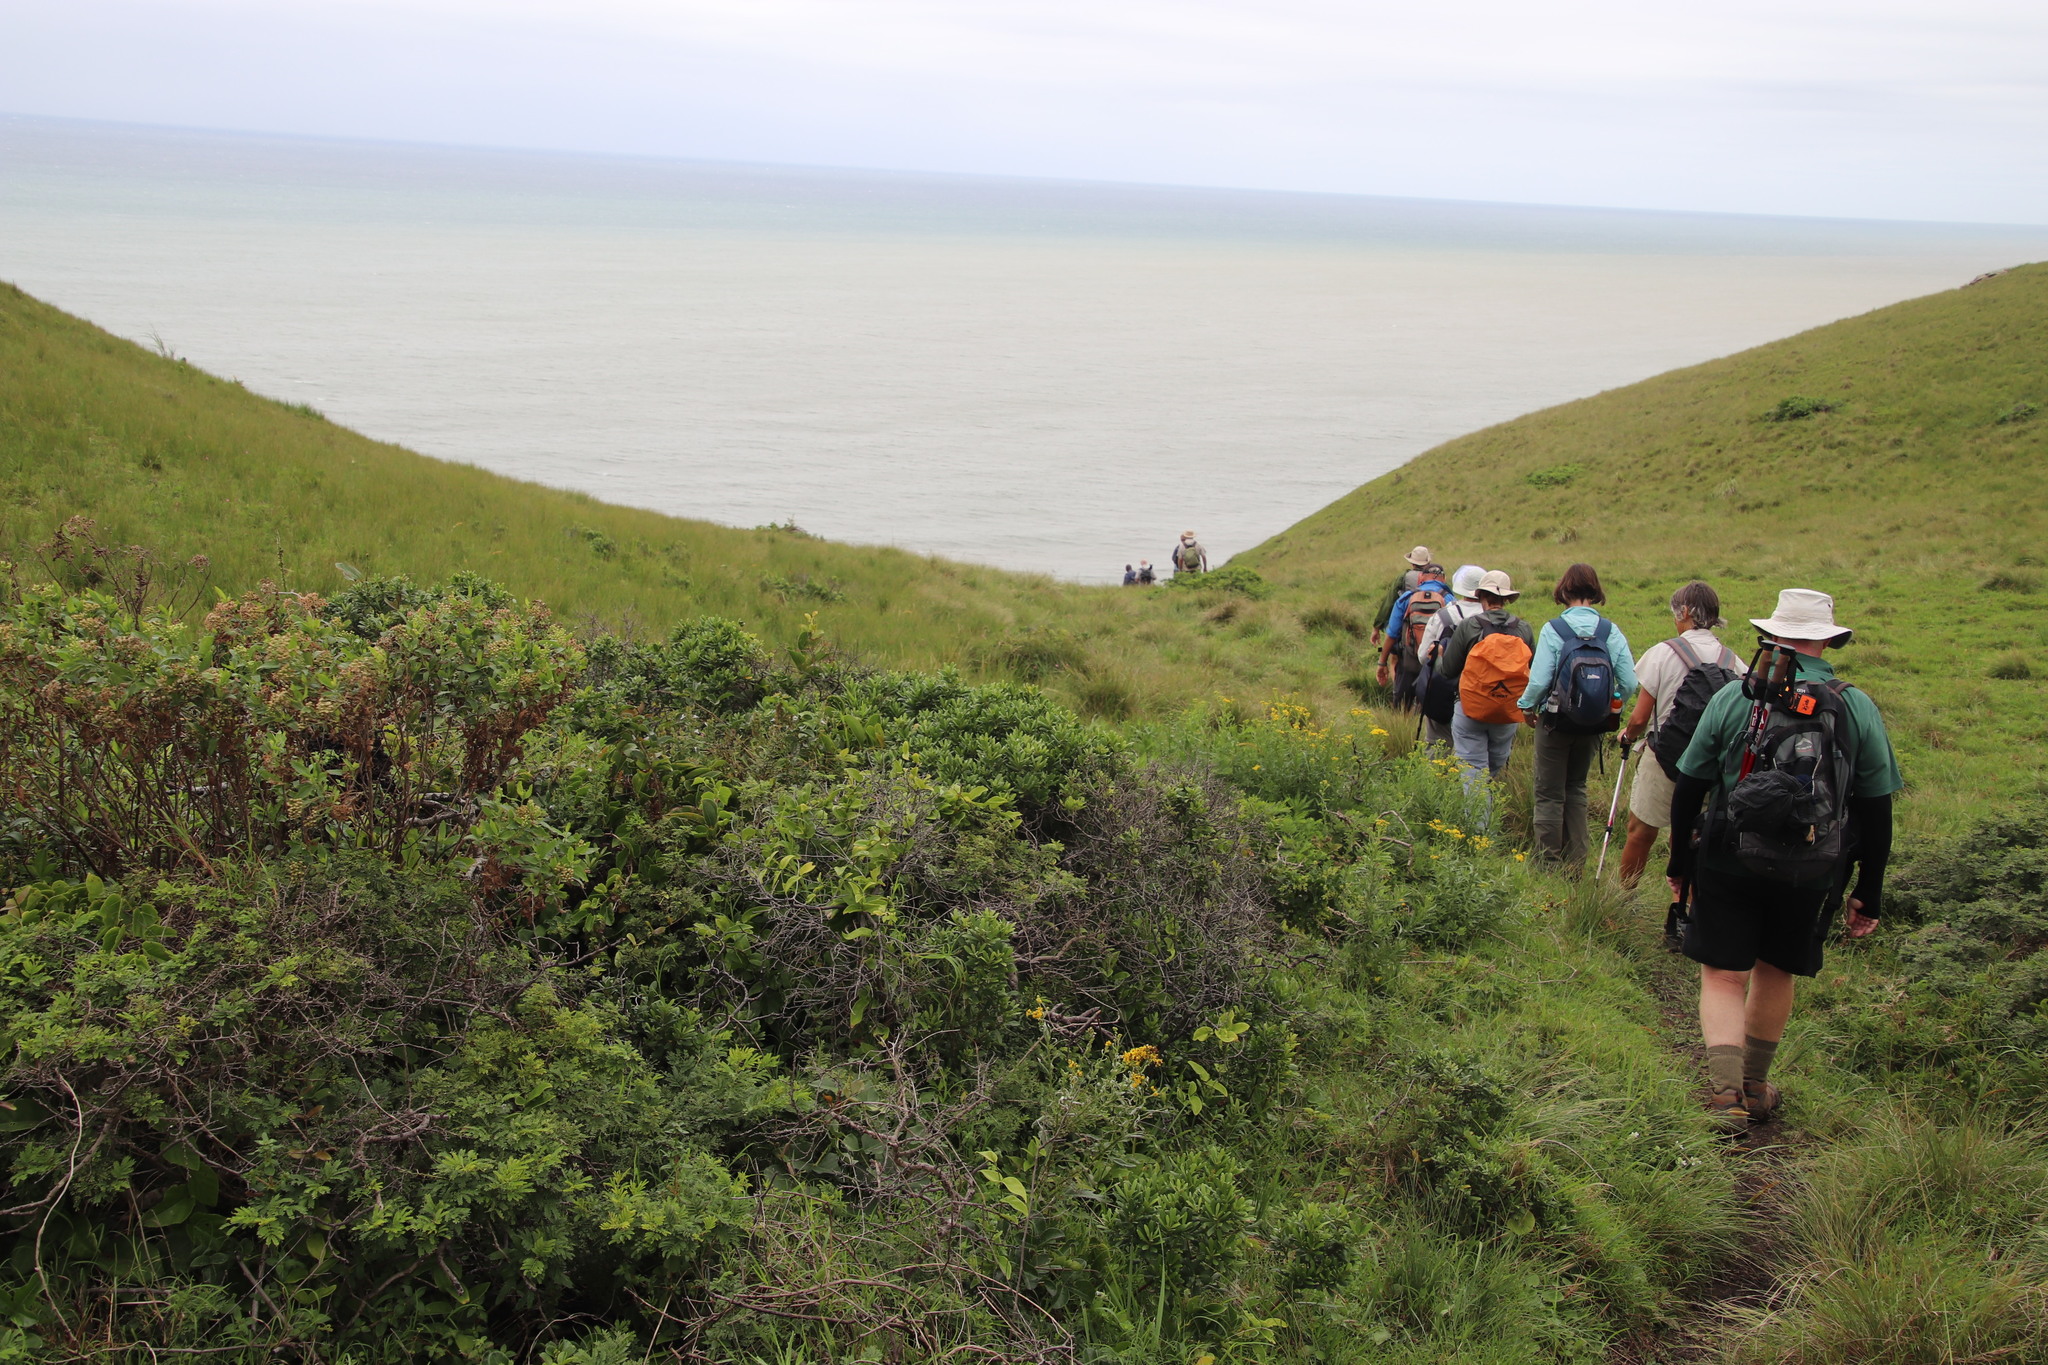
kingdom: Plantae
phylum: Tracheophyta
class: Magnoliopsida
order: Asterales
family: Asteraceae
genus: Nidorella
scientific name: Nidorella ivifolia
